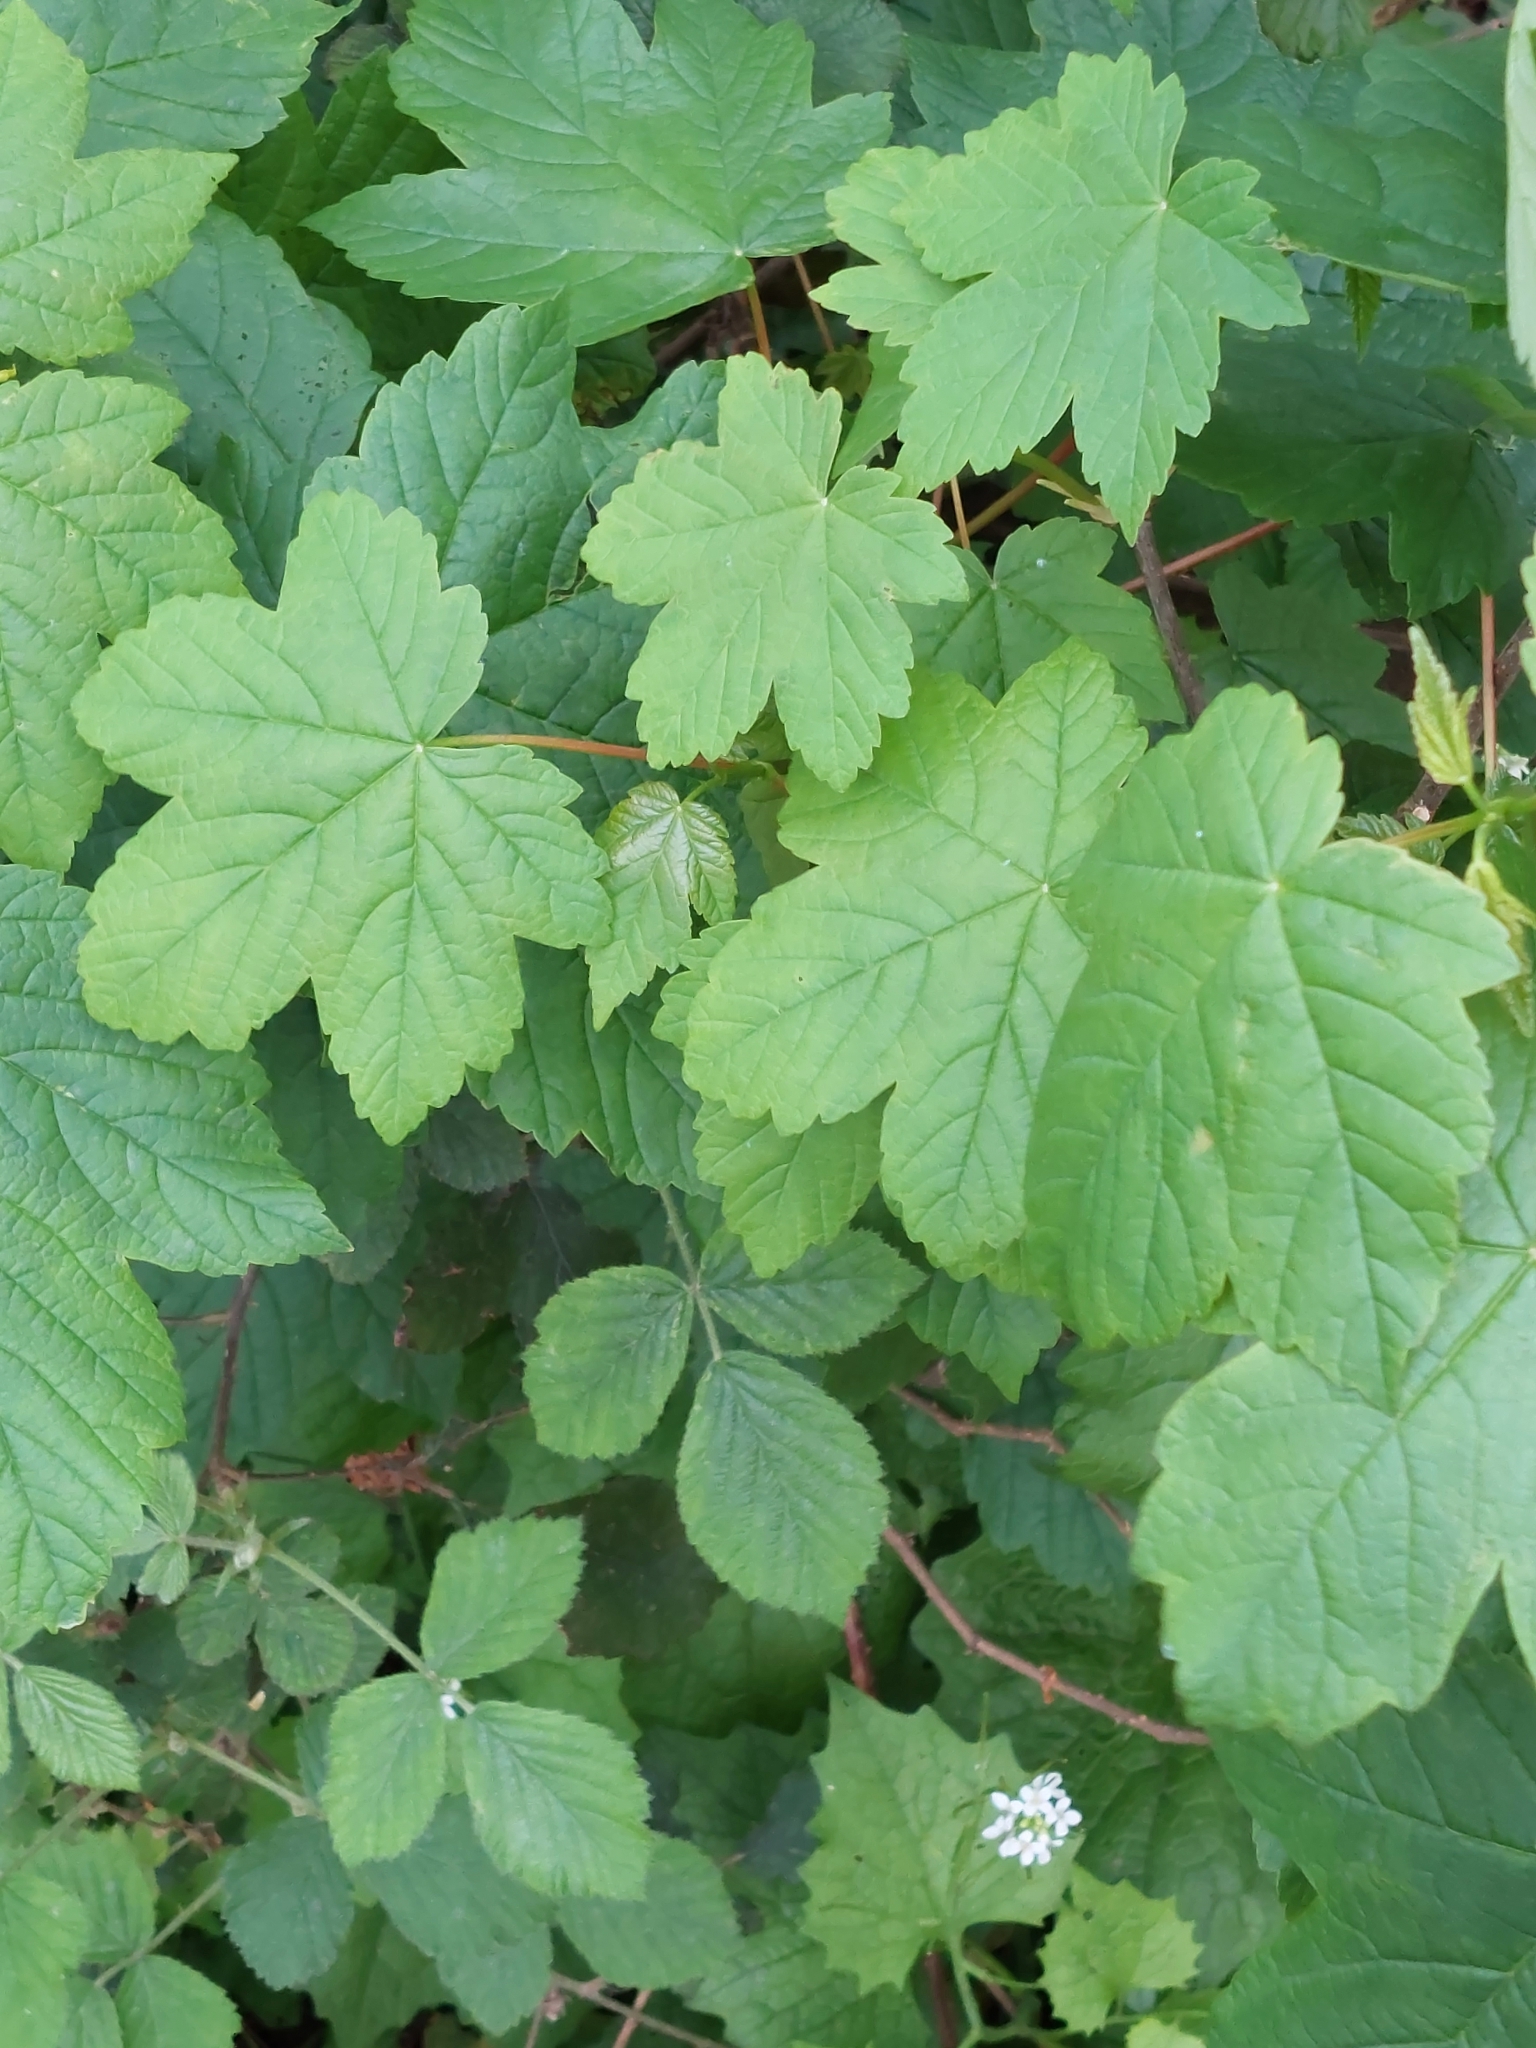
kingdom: Plantae
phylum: Tracheophyta
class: Magnoliopsida
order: Sapindales
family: Sapindaceae
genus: Acer
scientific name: Acer pseudoplatanus
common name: Sycamore
